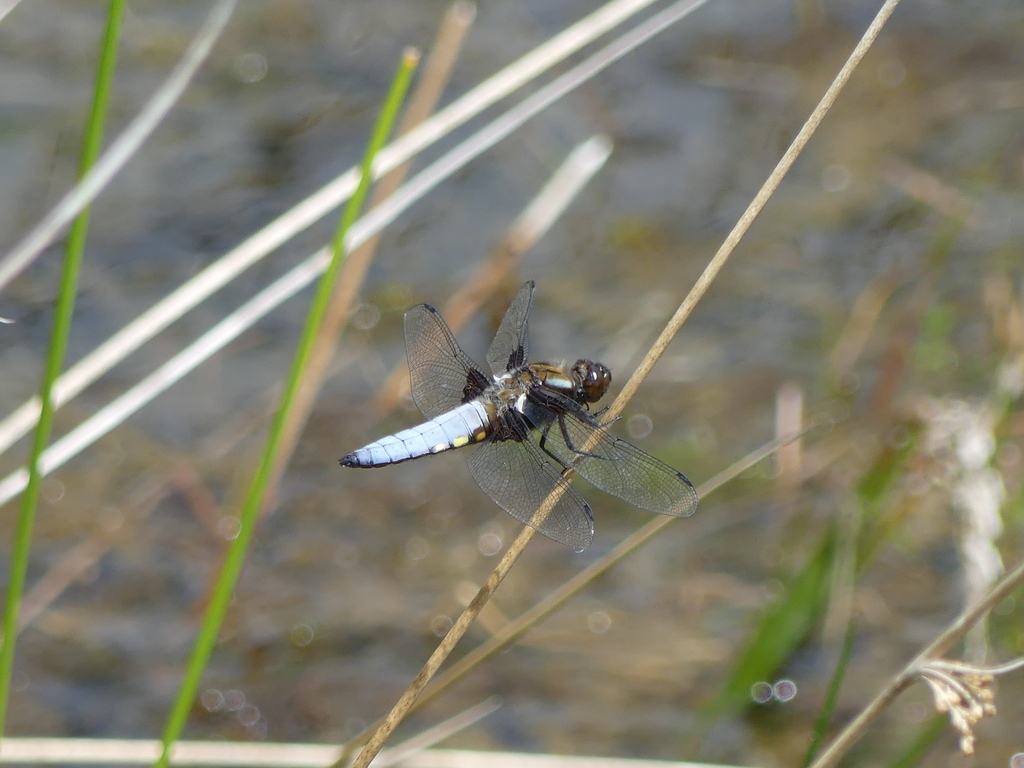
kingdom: Animalia
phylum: Arthropoda
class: Insecta
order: Odonata
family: Libellulidae
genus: Libellula
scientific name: Libellula depressa
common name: Broad-bodied chaser
